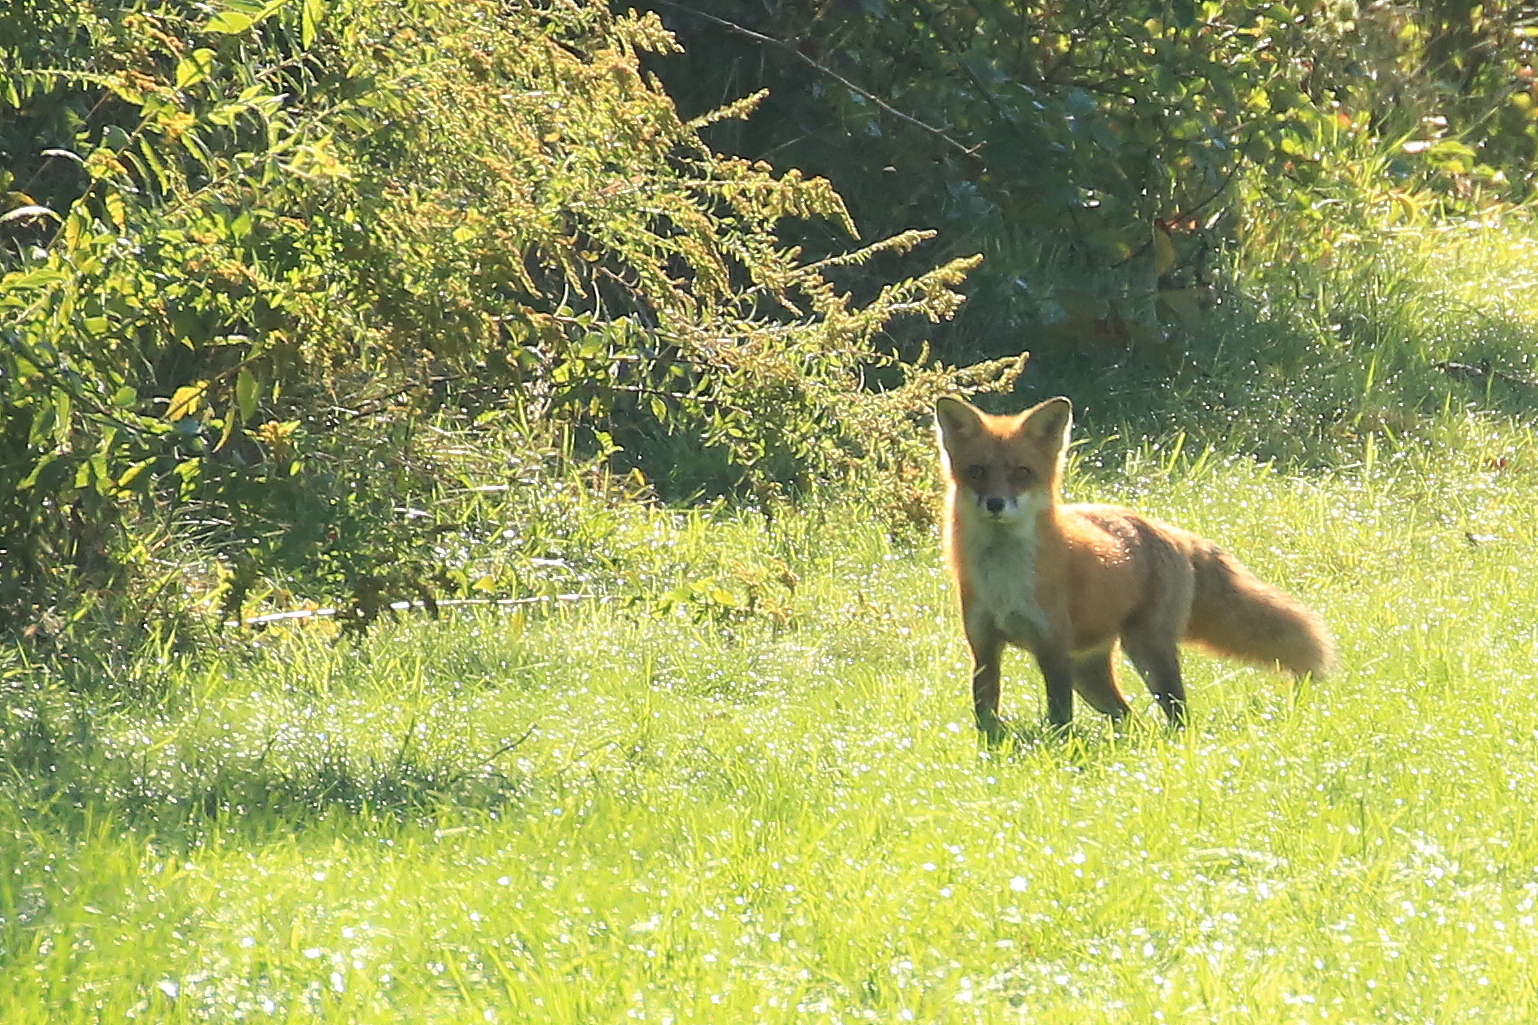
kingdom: Animalia
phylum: Chordata
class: Mammalia
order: Carnivora
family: Canidae
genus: Vulpes
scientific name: Vulpes vulpes
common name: Red fox
